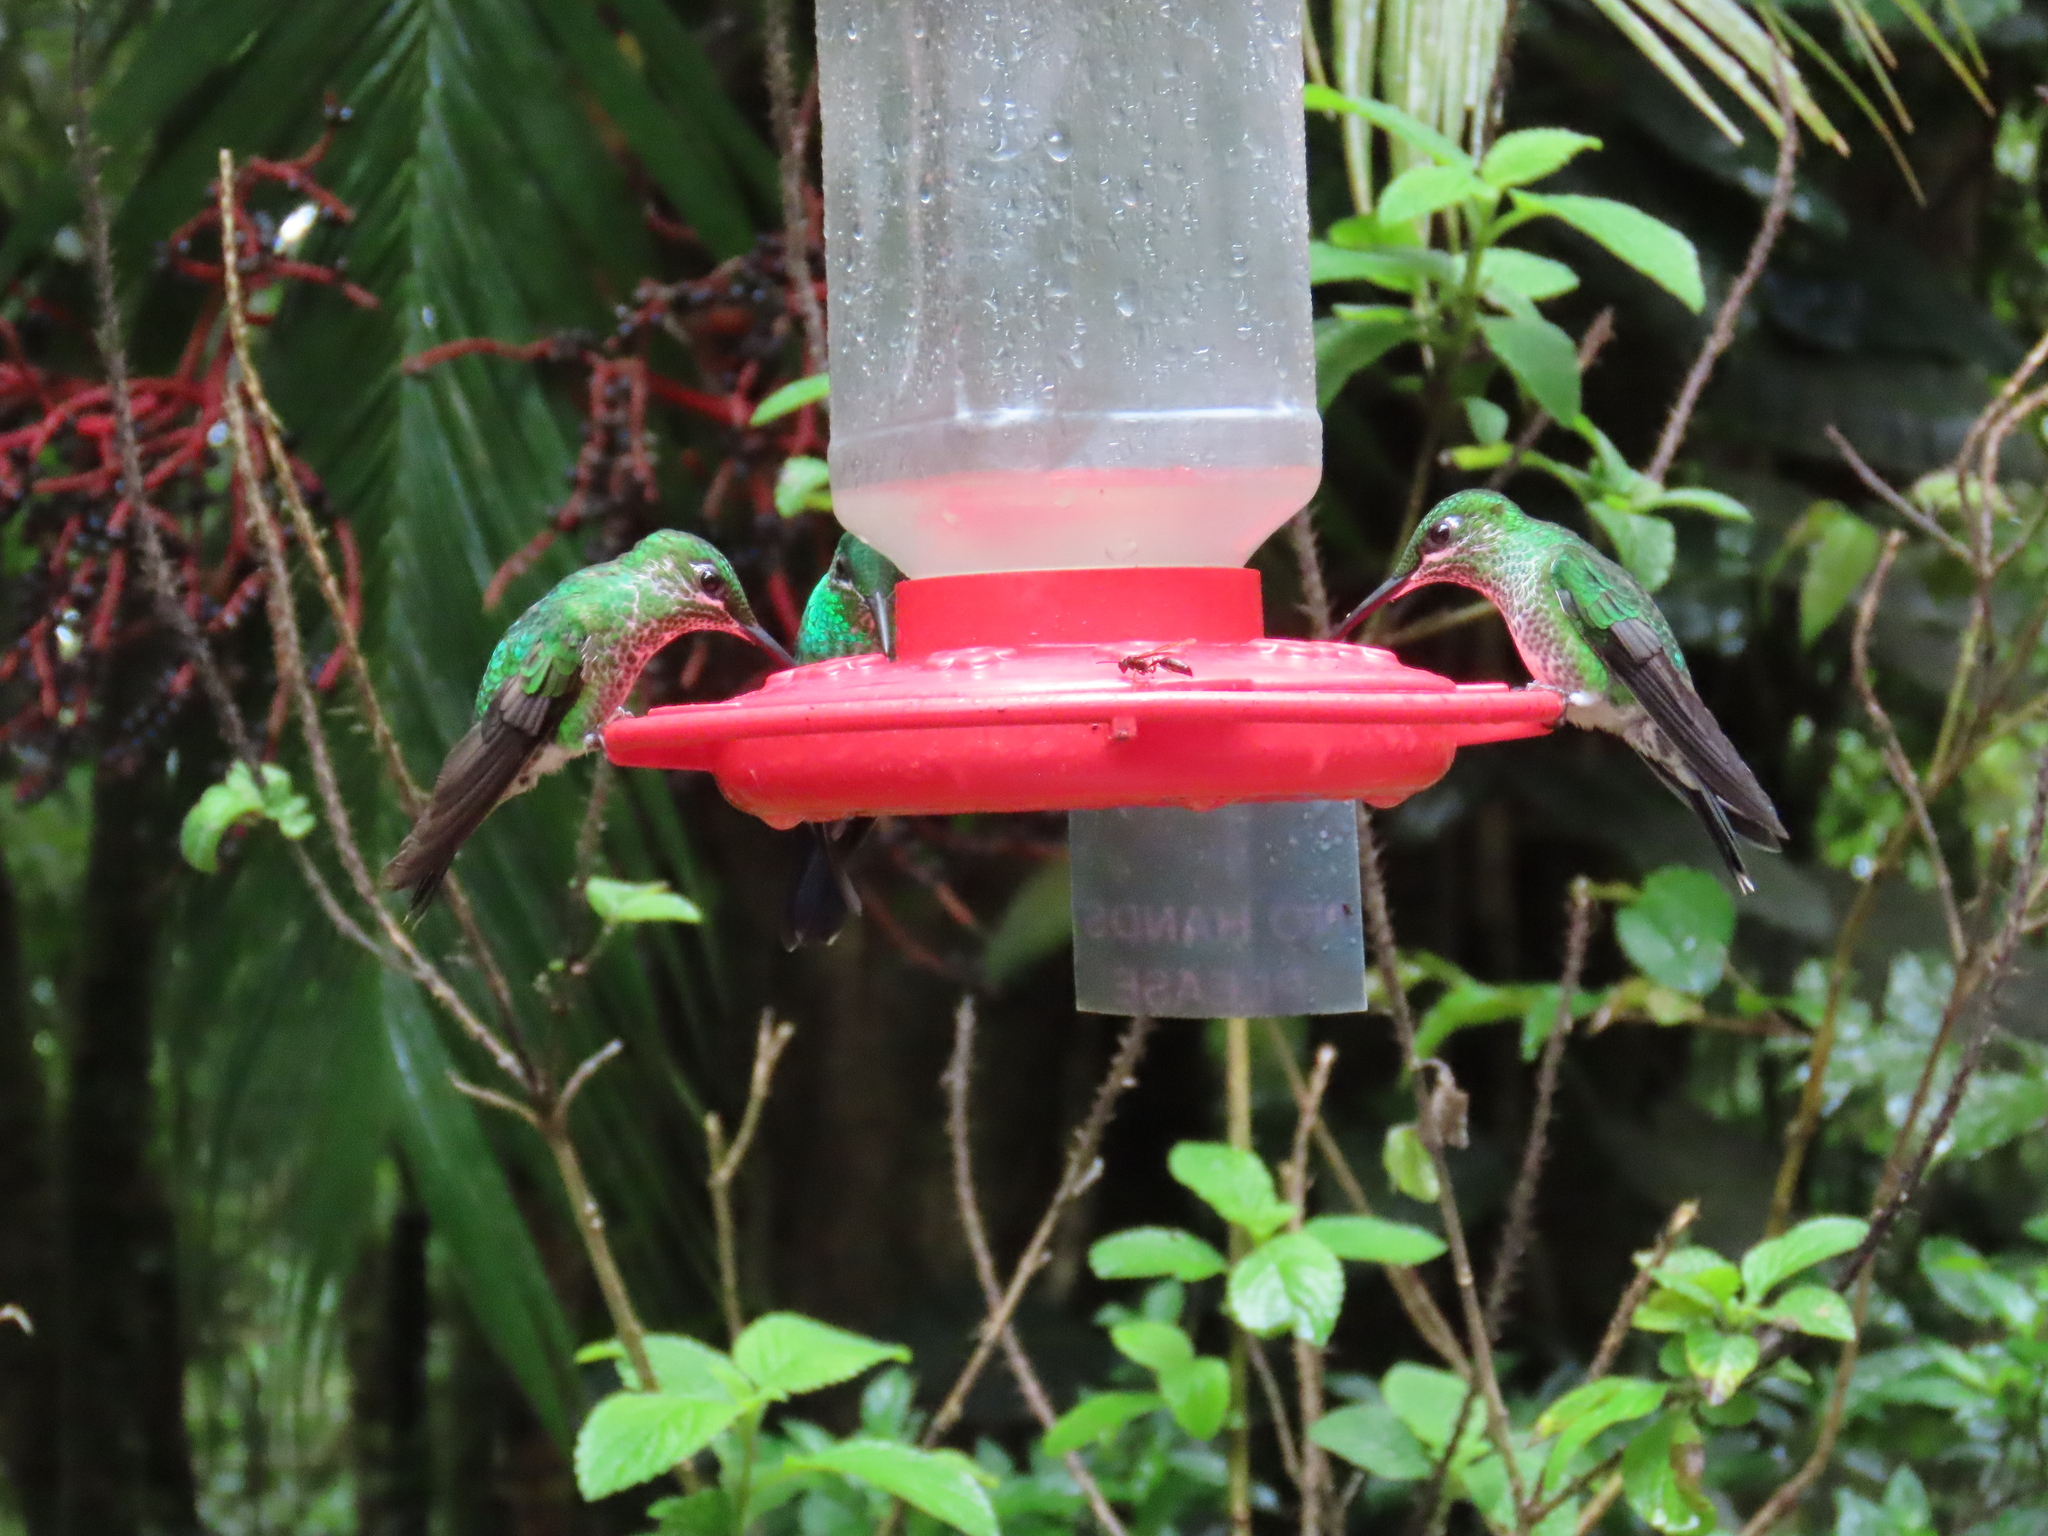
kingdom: Animalia
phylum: Chordata
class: Aves
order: Apodiformes
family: Trochilidae
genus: Heliodoxa
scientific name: Heliodoxa jacula
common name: Green-crowned brilliant
